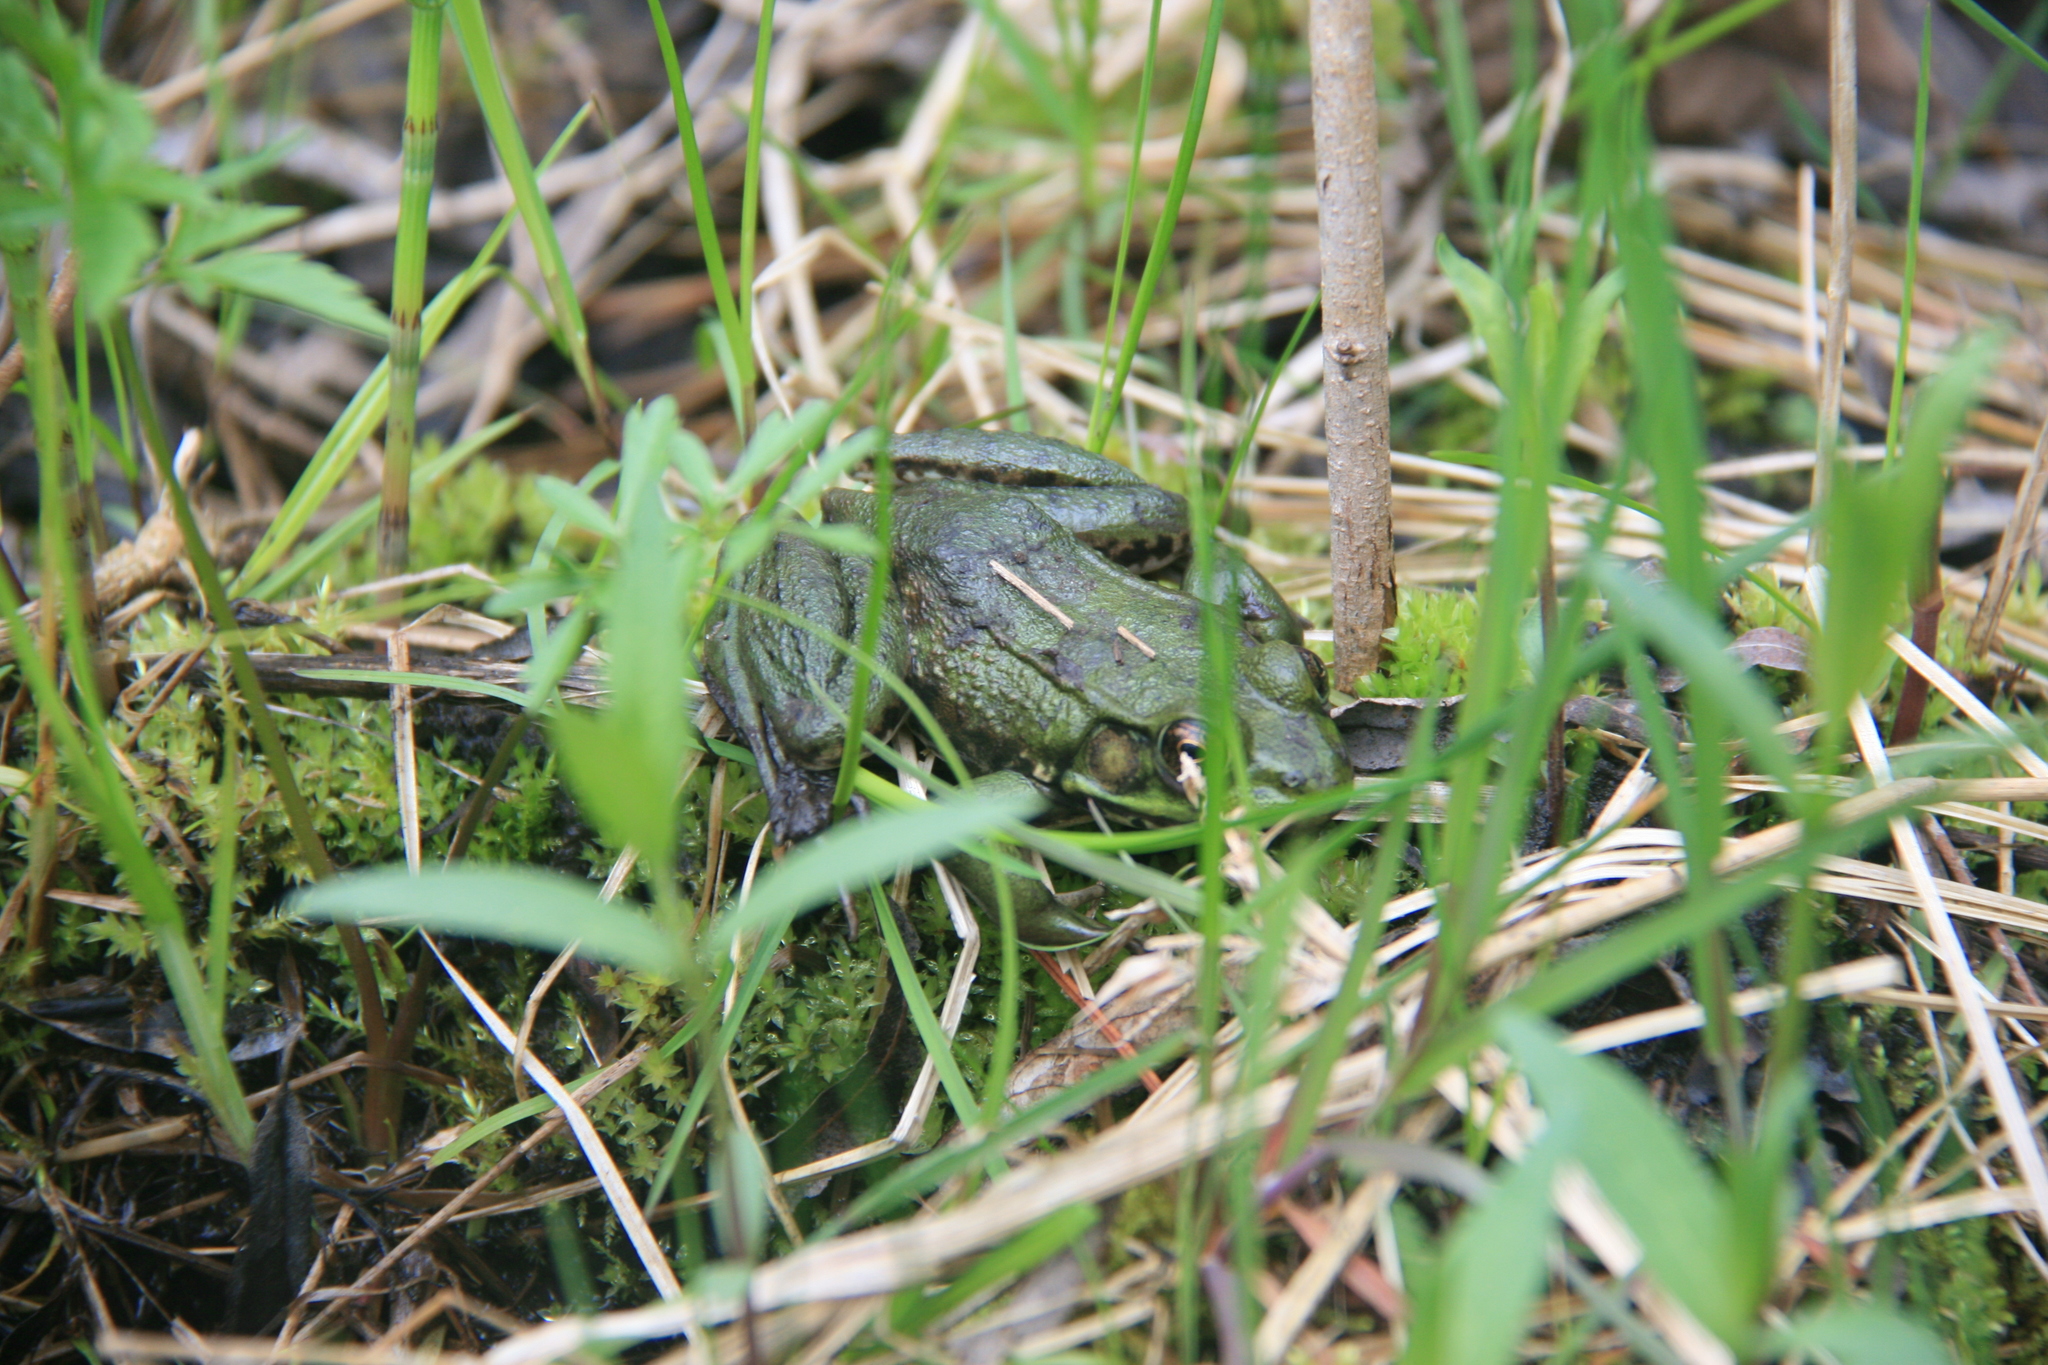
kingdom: Animalia
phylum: Chordata
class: Amphibia
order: Anura
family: Ranidae
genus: Lithobates
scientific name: Lithobates clamitans
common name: Green frog
